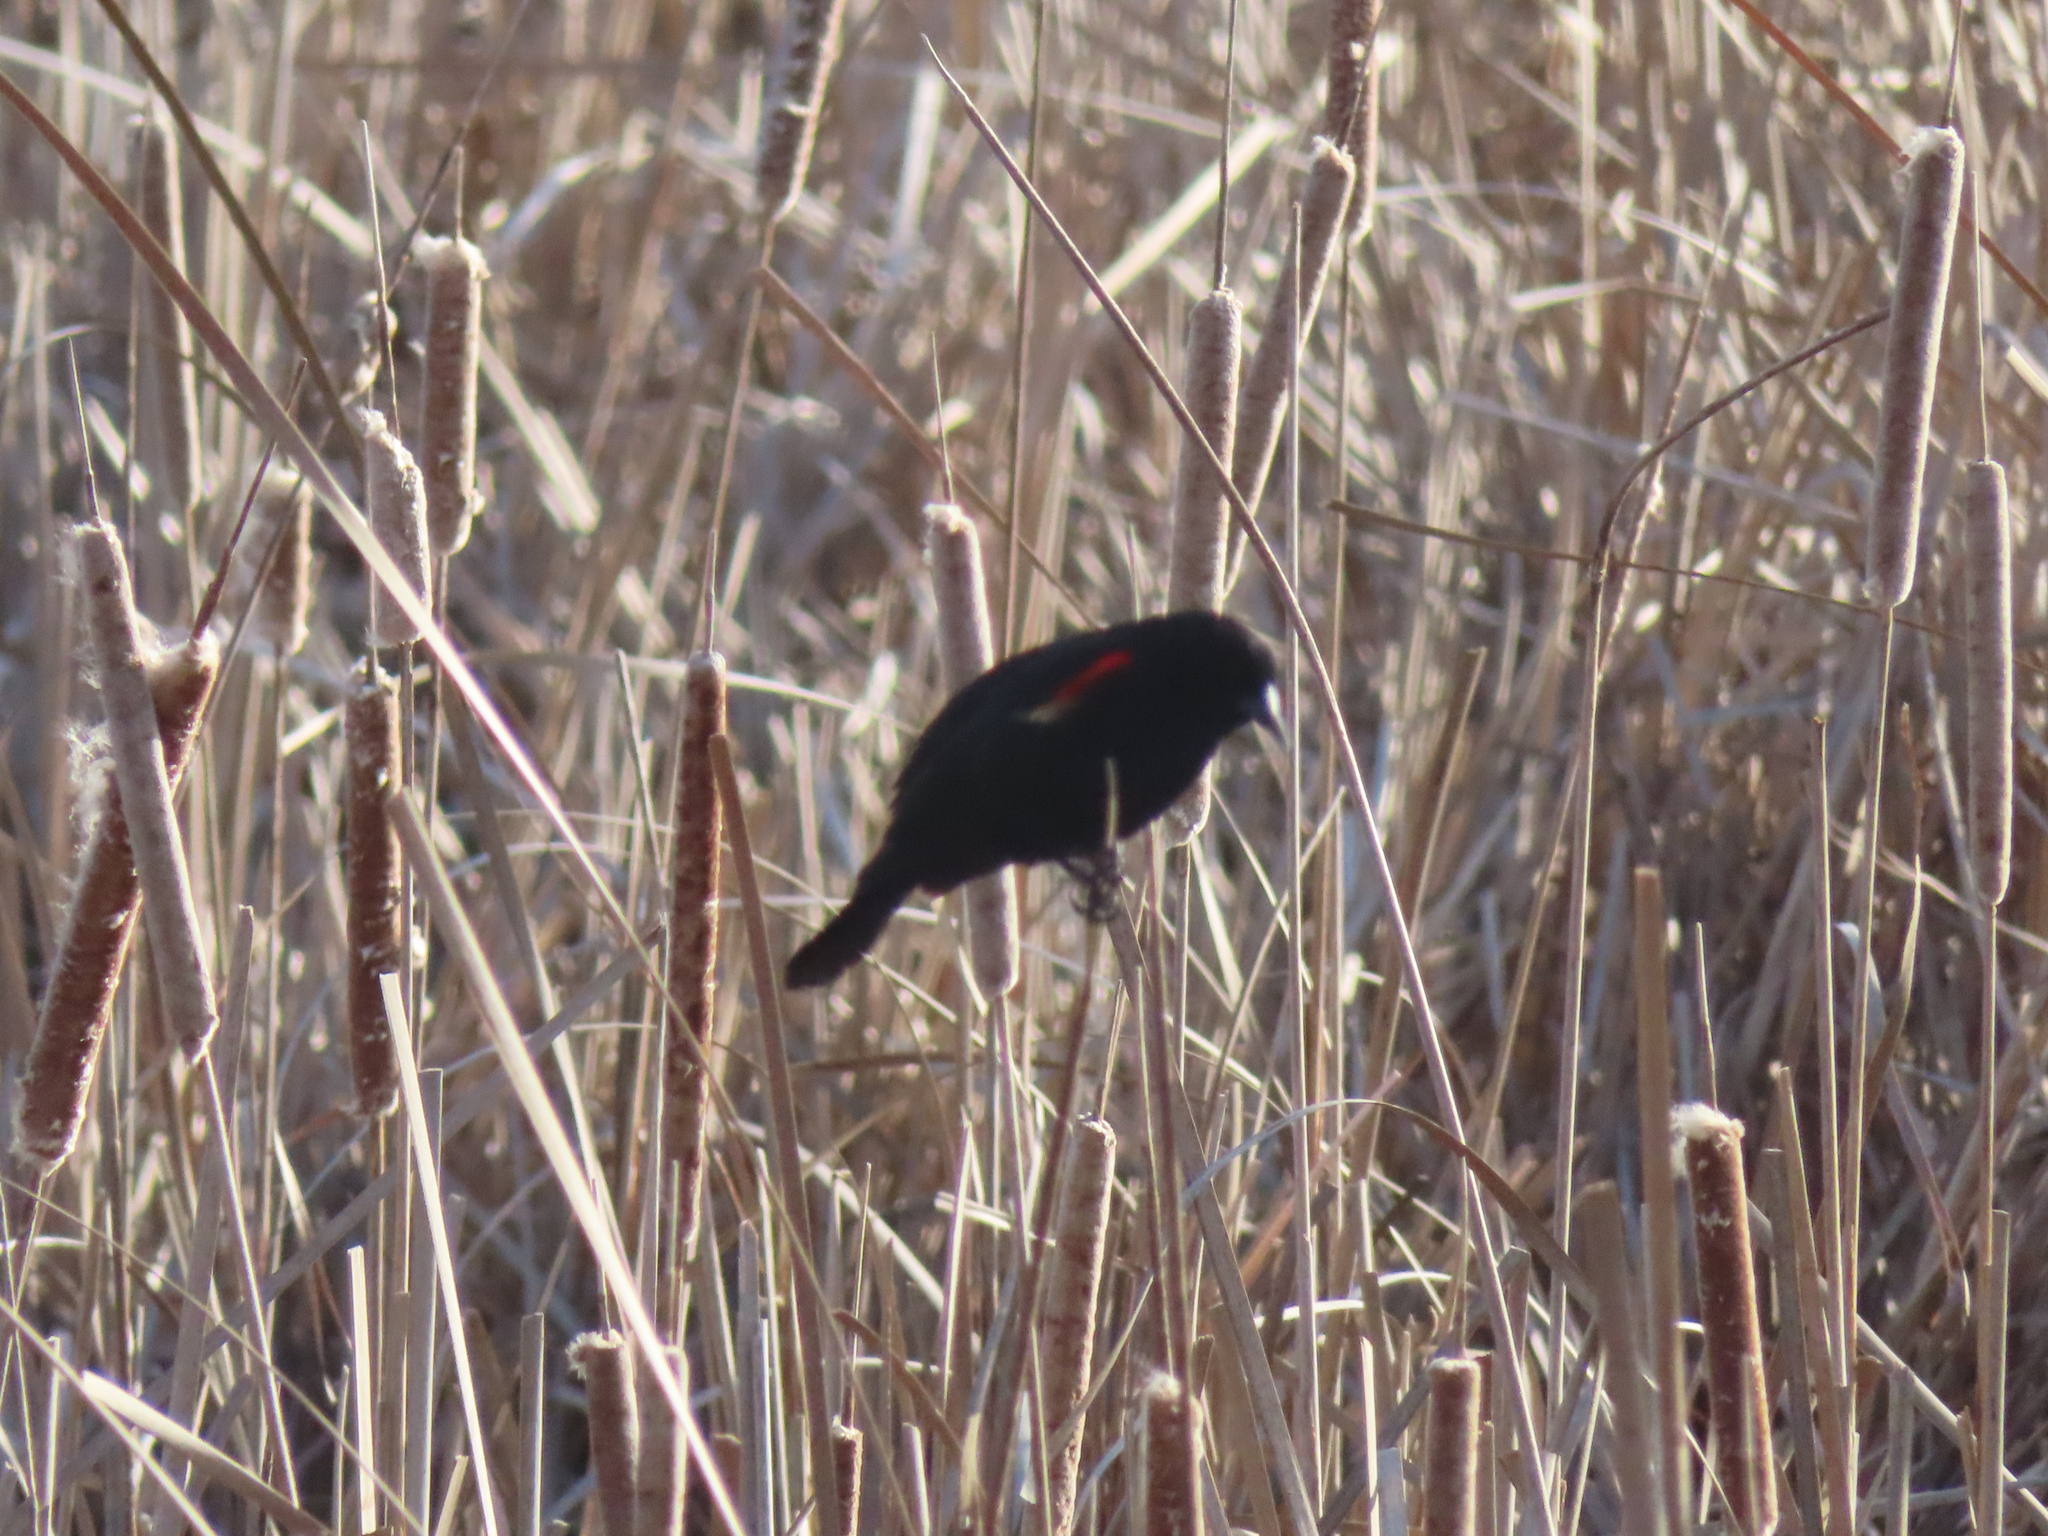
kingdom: Animalia
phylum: Chordata
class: Aves
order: Passeriformes
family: Icteridae
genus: Agelaius
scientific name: Agelaius phoeniceus
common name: Red-winged blackbird
